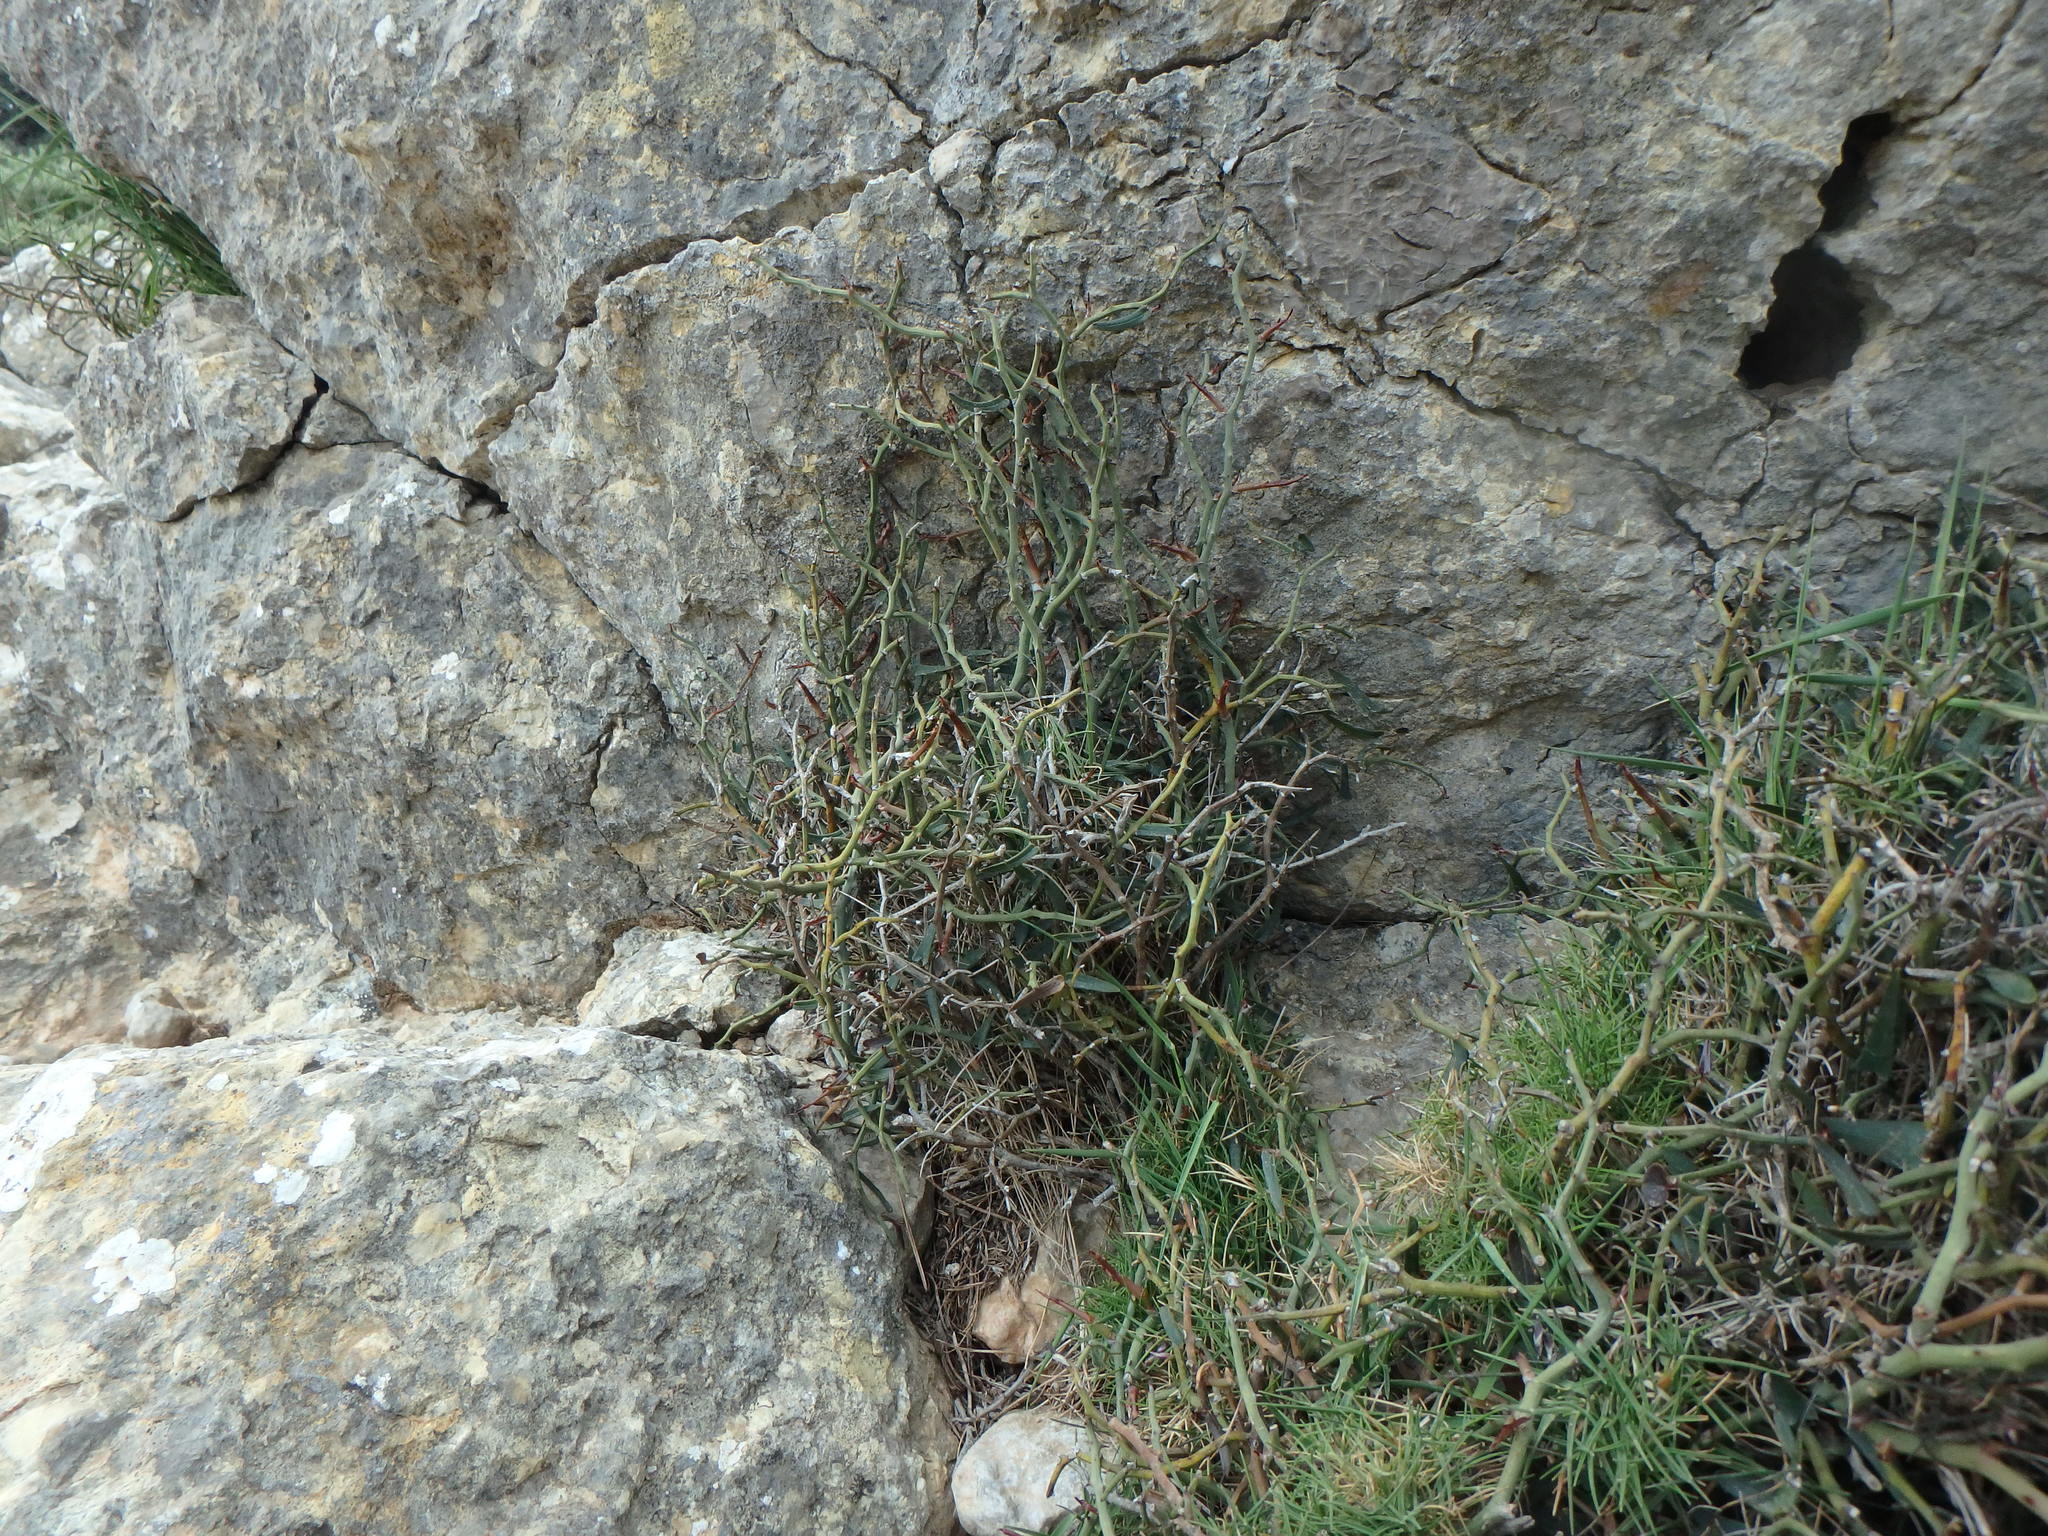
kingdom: Plantae
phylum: Tracheophyta
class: Liliopsida
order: Liliales
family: Smilacaceae
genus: Smilax
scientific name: Smilax aspera
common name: Common smilax
